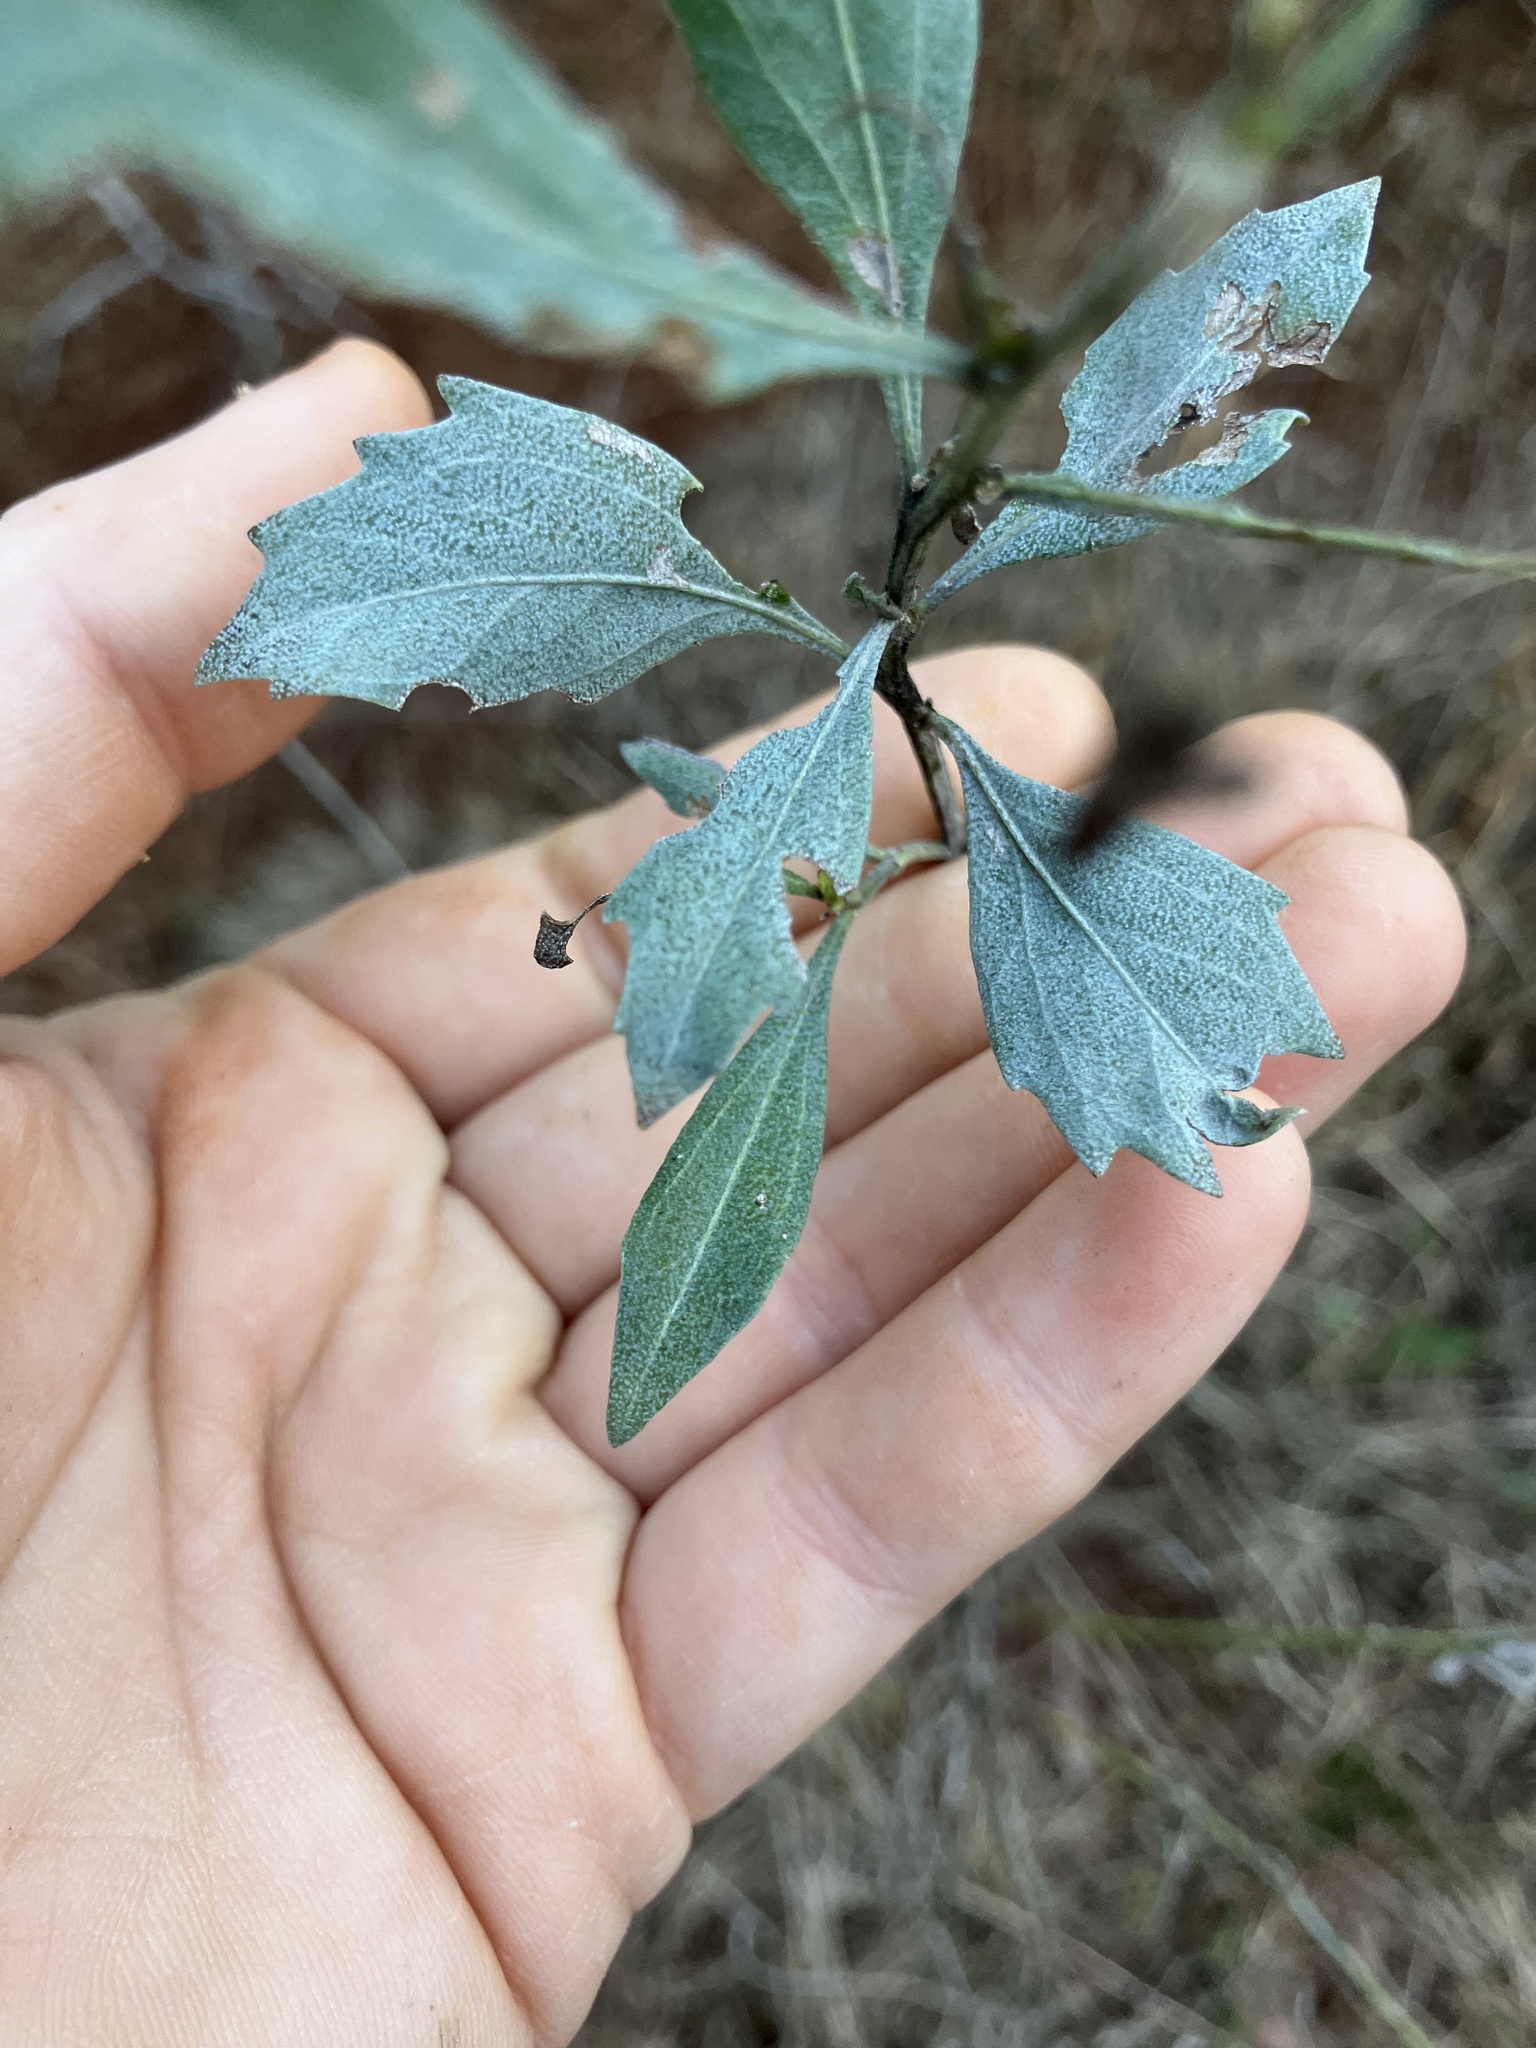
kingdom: Plantae
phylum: Tracheophyta
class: Magnoliopsida
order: Asterales
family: Asteraceae
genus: Baccharis
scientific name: Baccharis halimifolia
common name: Eastern baccharis
